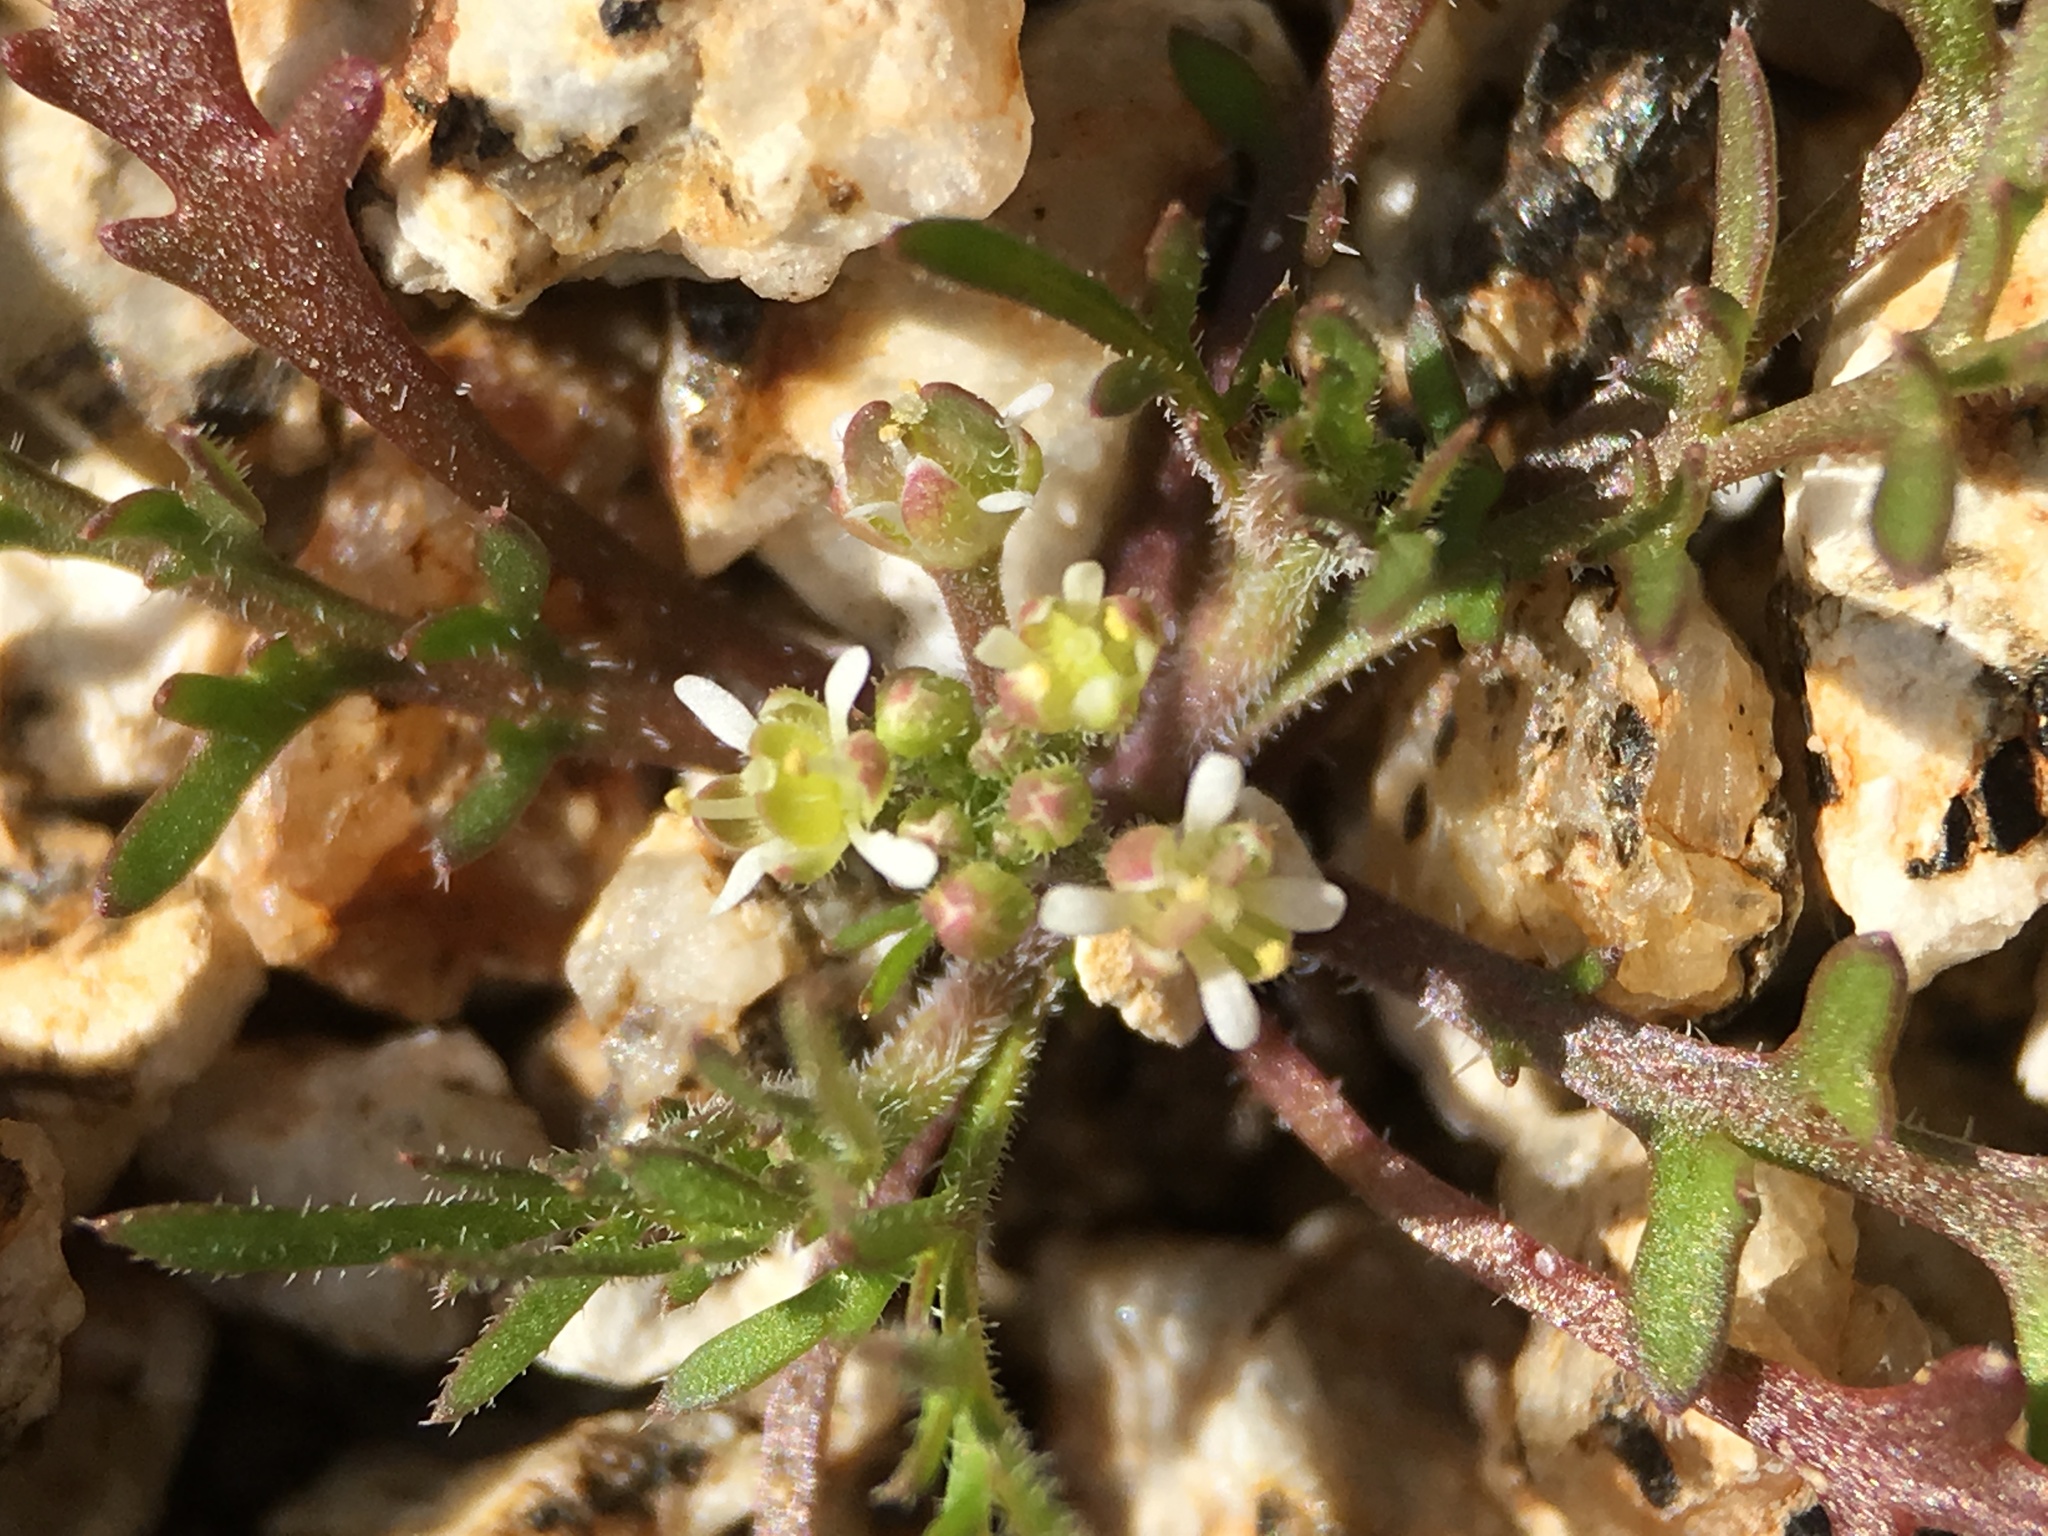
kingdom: Plantae
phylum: Tracheophyta
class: Magnoliopsida
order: Brassicales
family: Brassicaceae
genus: Lepidium
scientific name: Lepidium lasiocarpum
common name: Hairy-pod pepperwort
